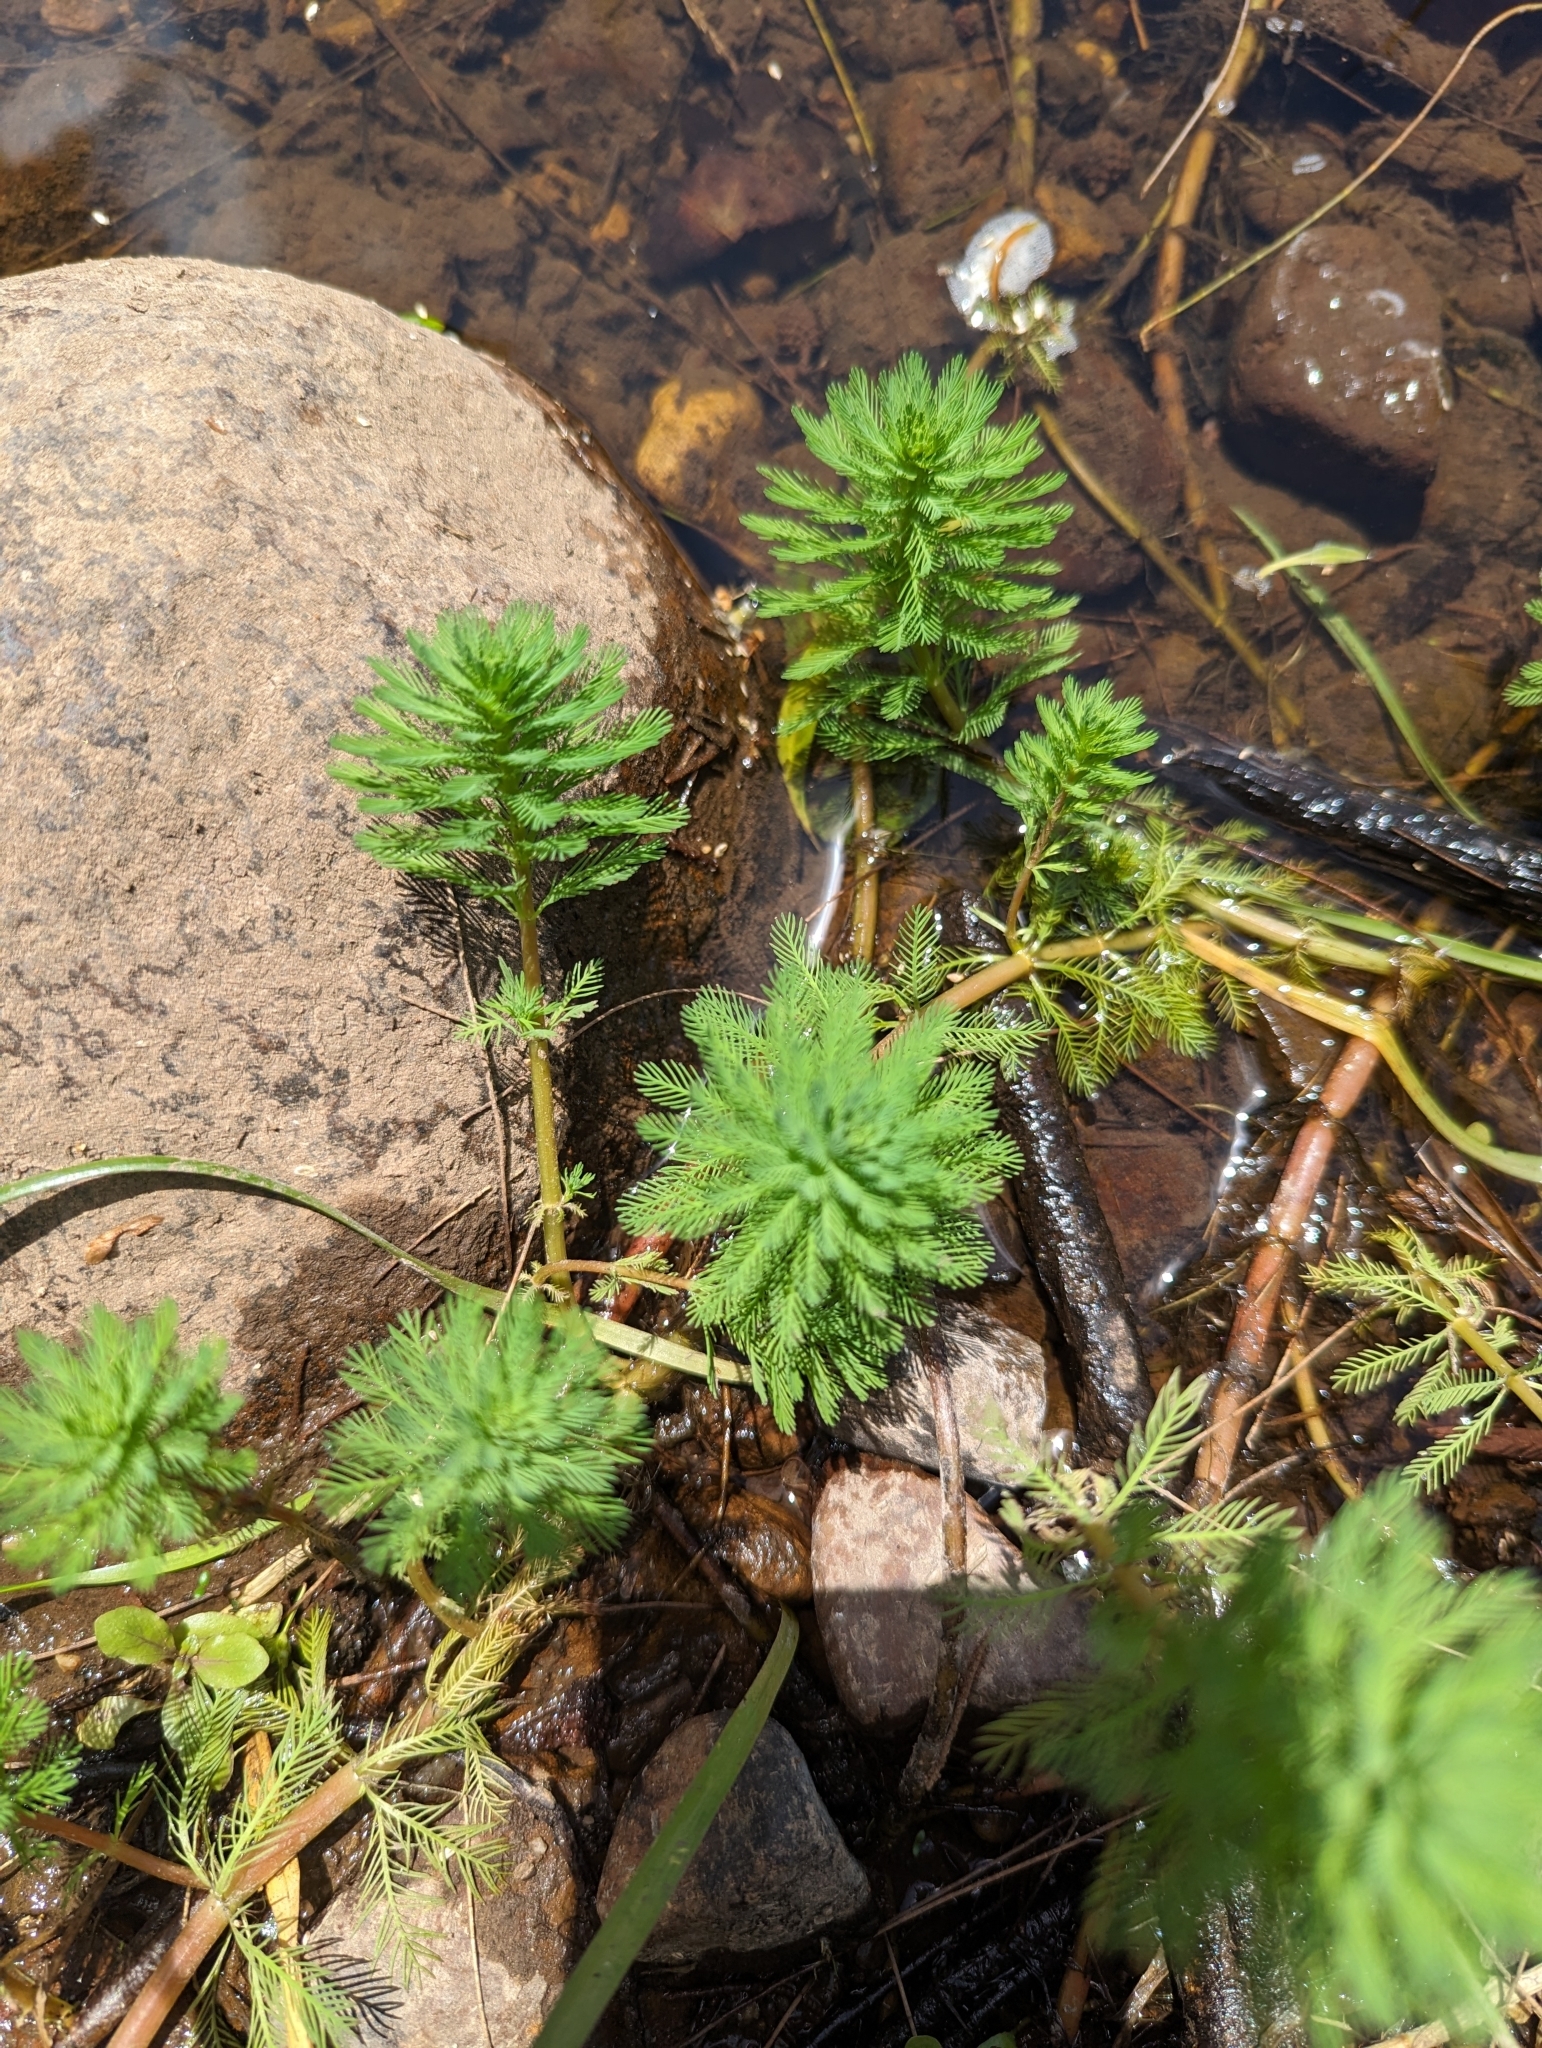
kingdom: Plantae
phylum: Tracheophyta
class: Magnoliopsida
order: Saxifragales
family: Haloragaceae
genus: Myriophyllum
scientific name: Myriophyllum aquaticum
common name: Parrot's feather
